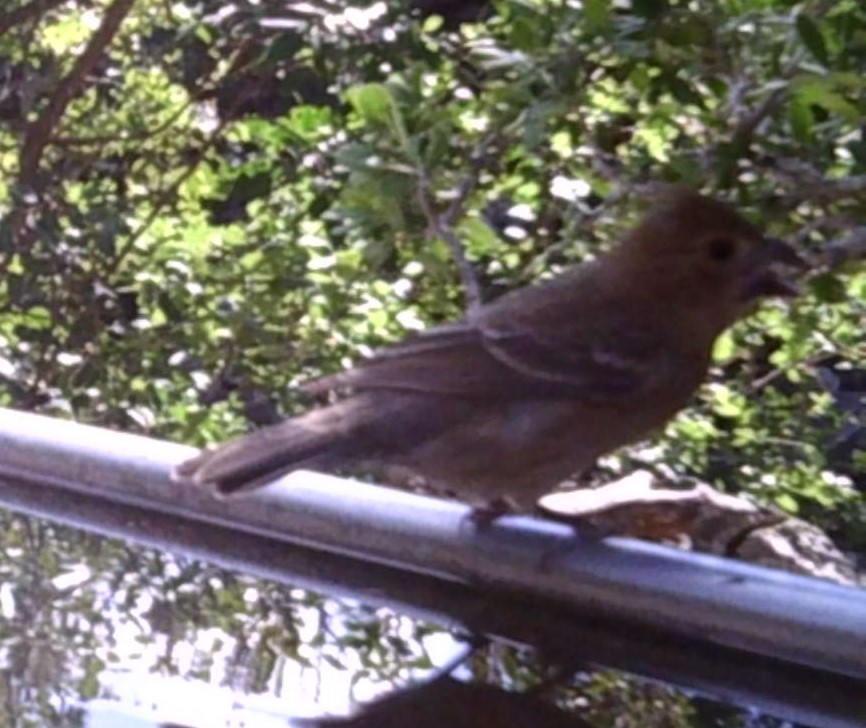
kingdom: Animalia
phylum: Chordata
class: Aves
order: Passeriformes
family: Cardinalidae
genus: Passerina
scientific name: Passerina caerulea
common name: Blue grosbeak
